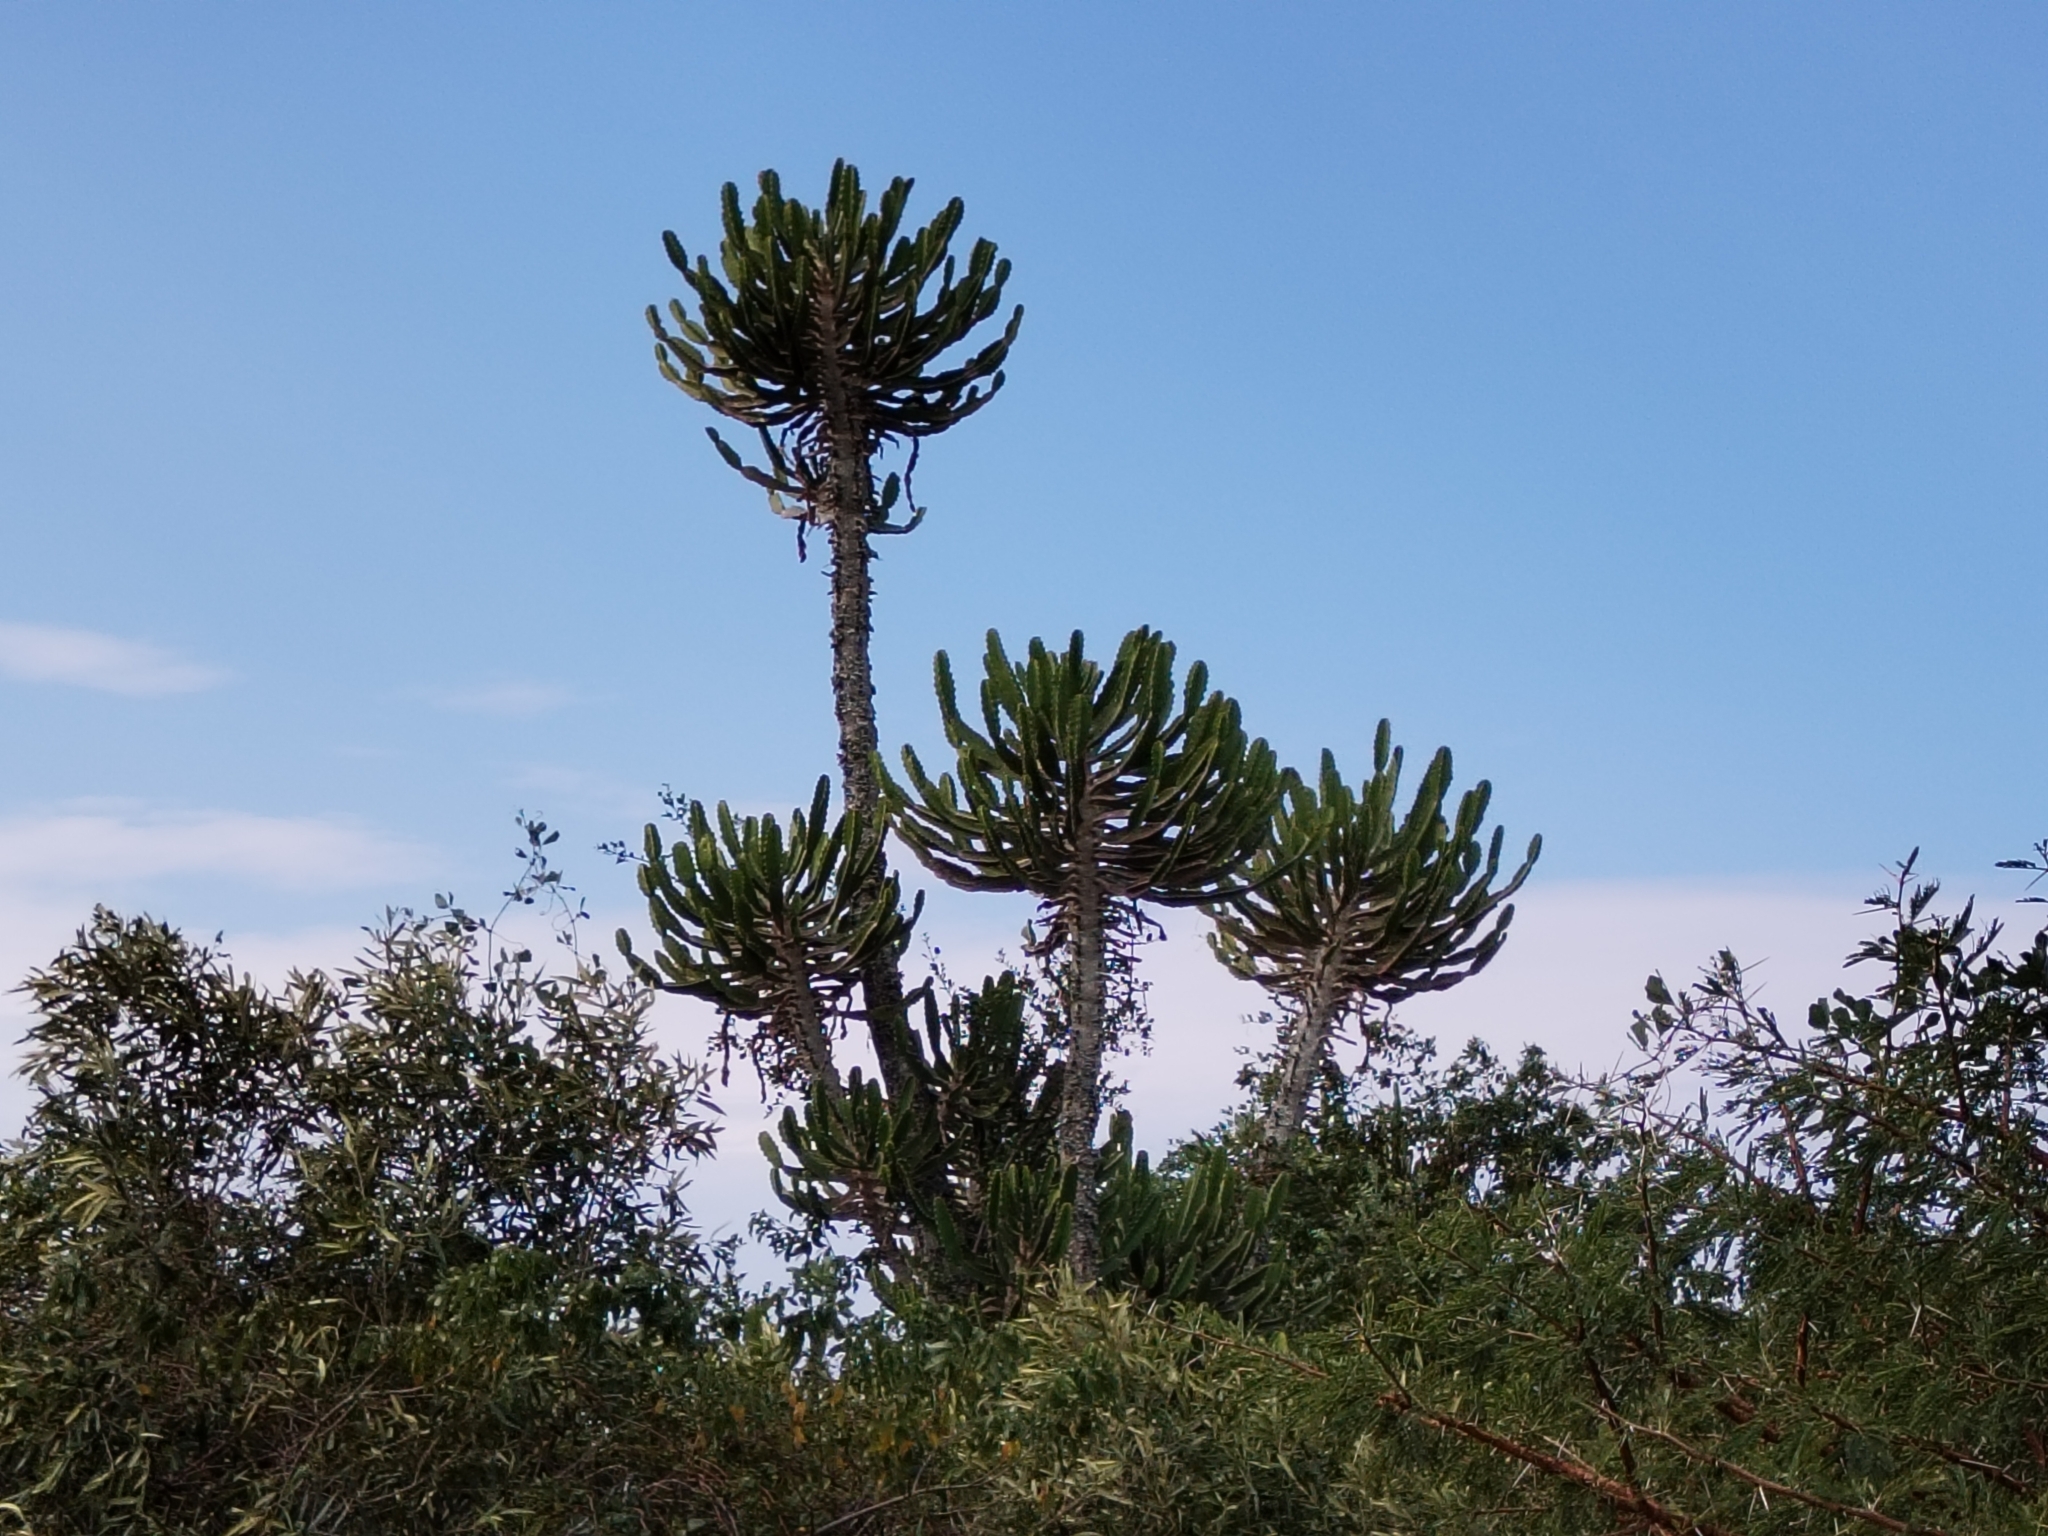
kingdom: Plantae
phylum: Tracheophyta
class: Magnoliopsida
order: Malpighiales
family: Euphorbiaceae
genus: Euphorbia
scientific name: Euphorbia triangularis
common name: Chandelier tree
